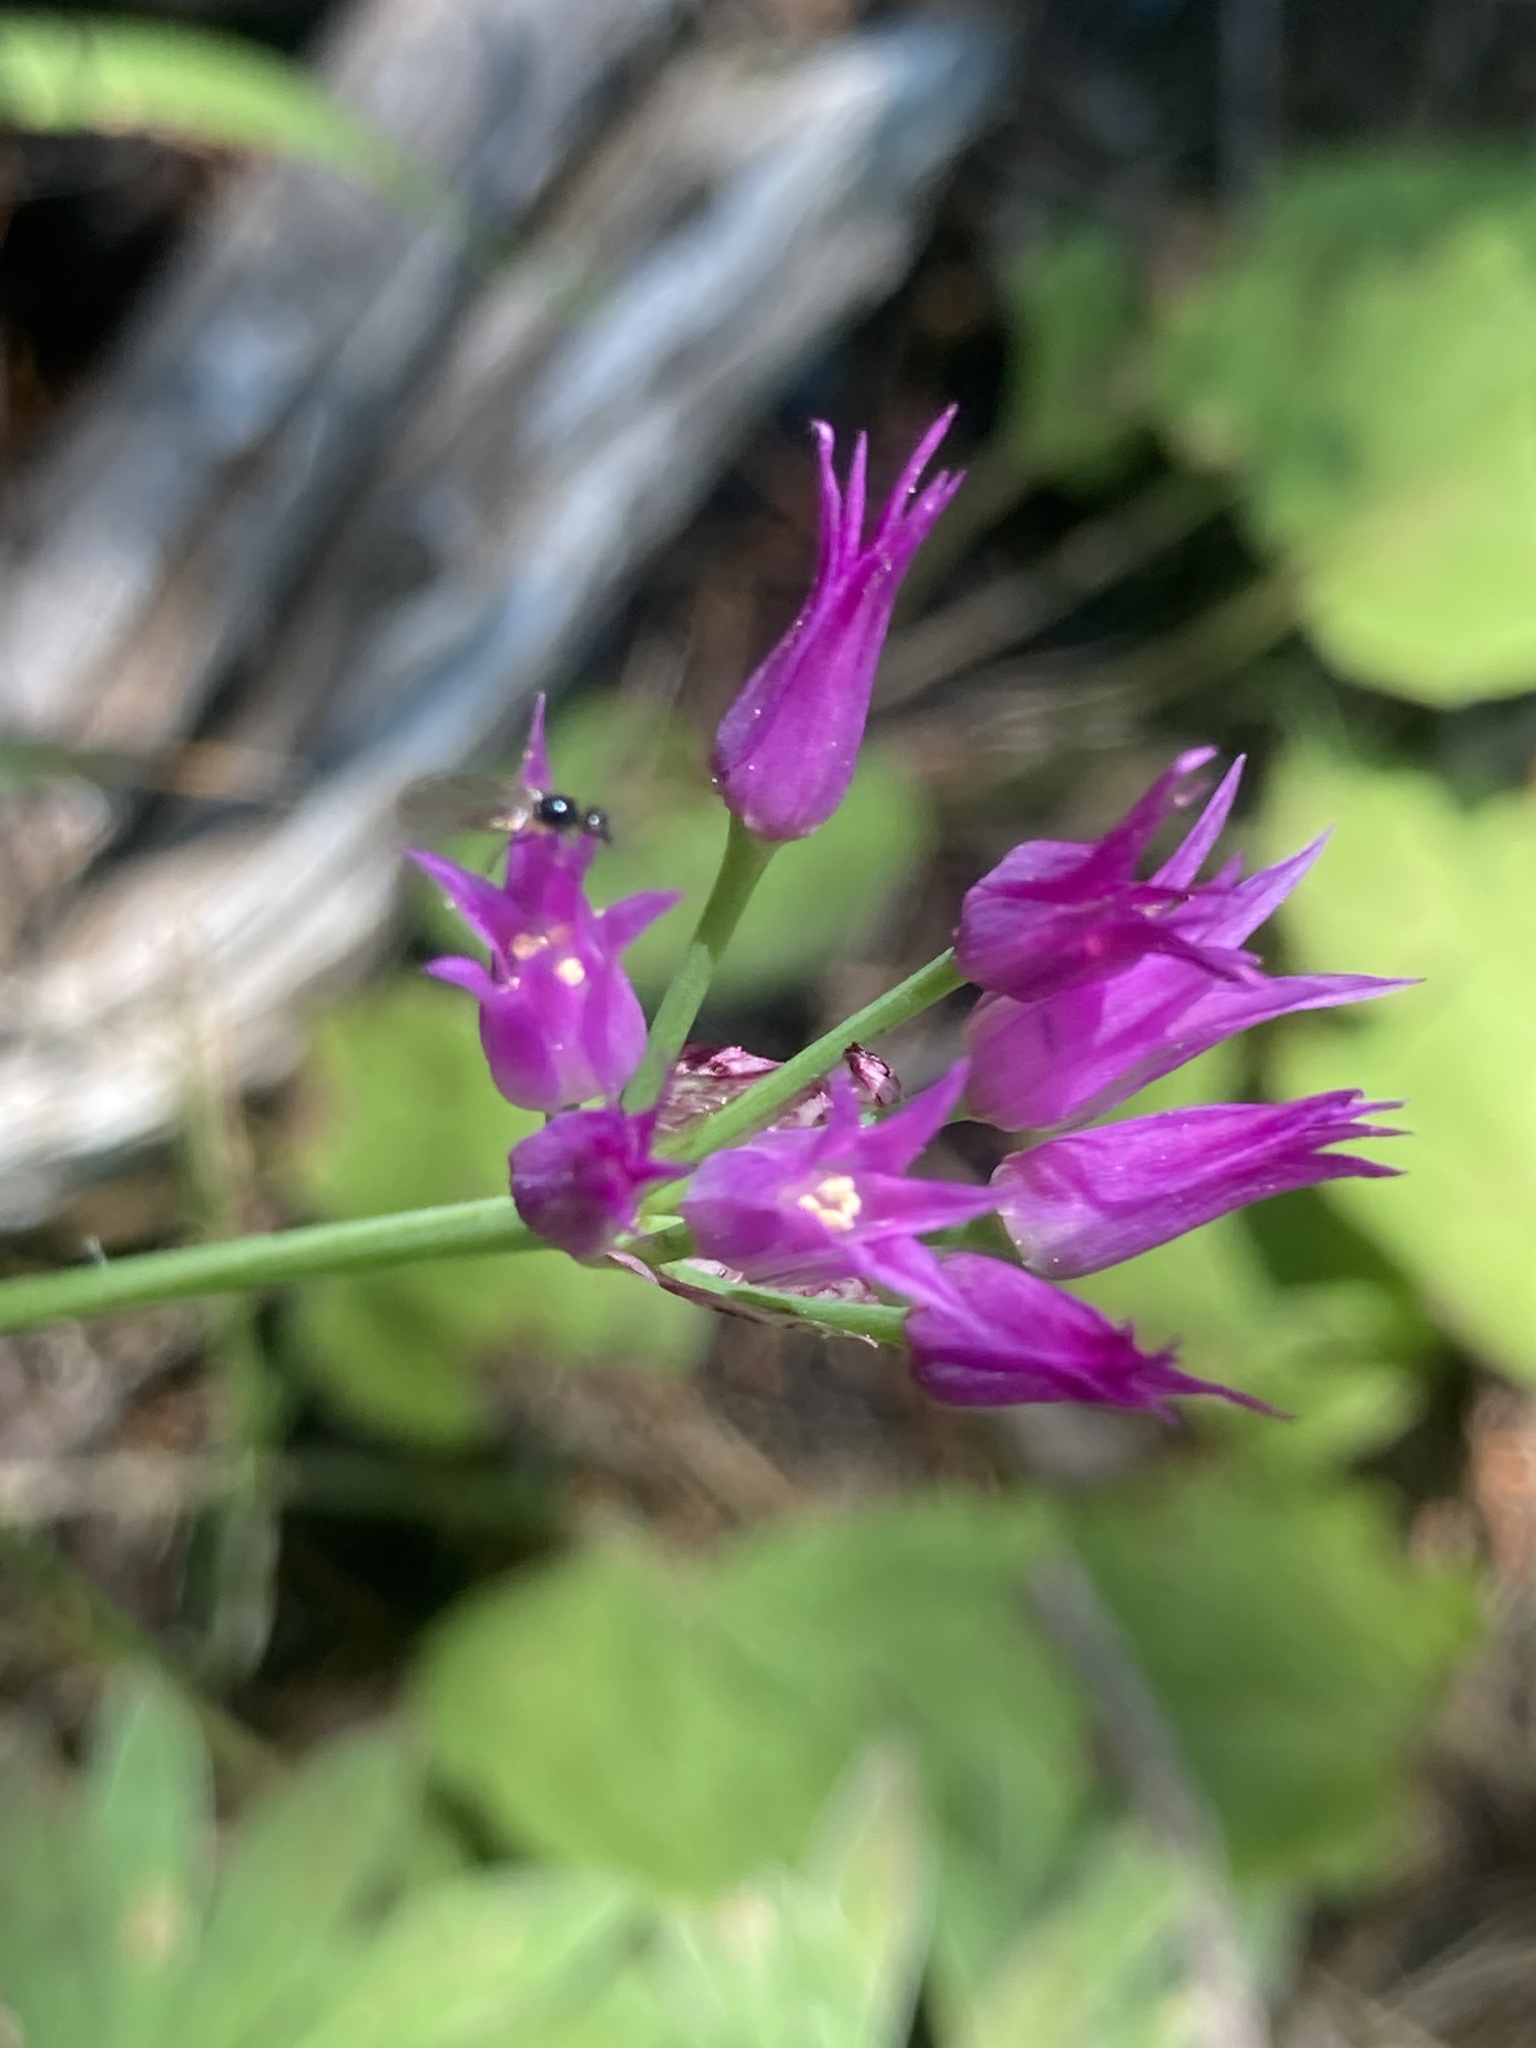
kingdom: Plantae
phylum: Tracheophyta
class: Liliopsida
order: Asparagales
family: Amaryllidaceae
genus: Allium
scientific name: Allium brevistylum
